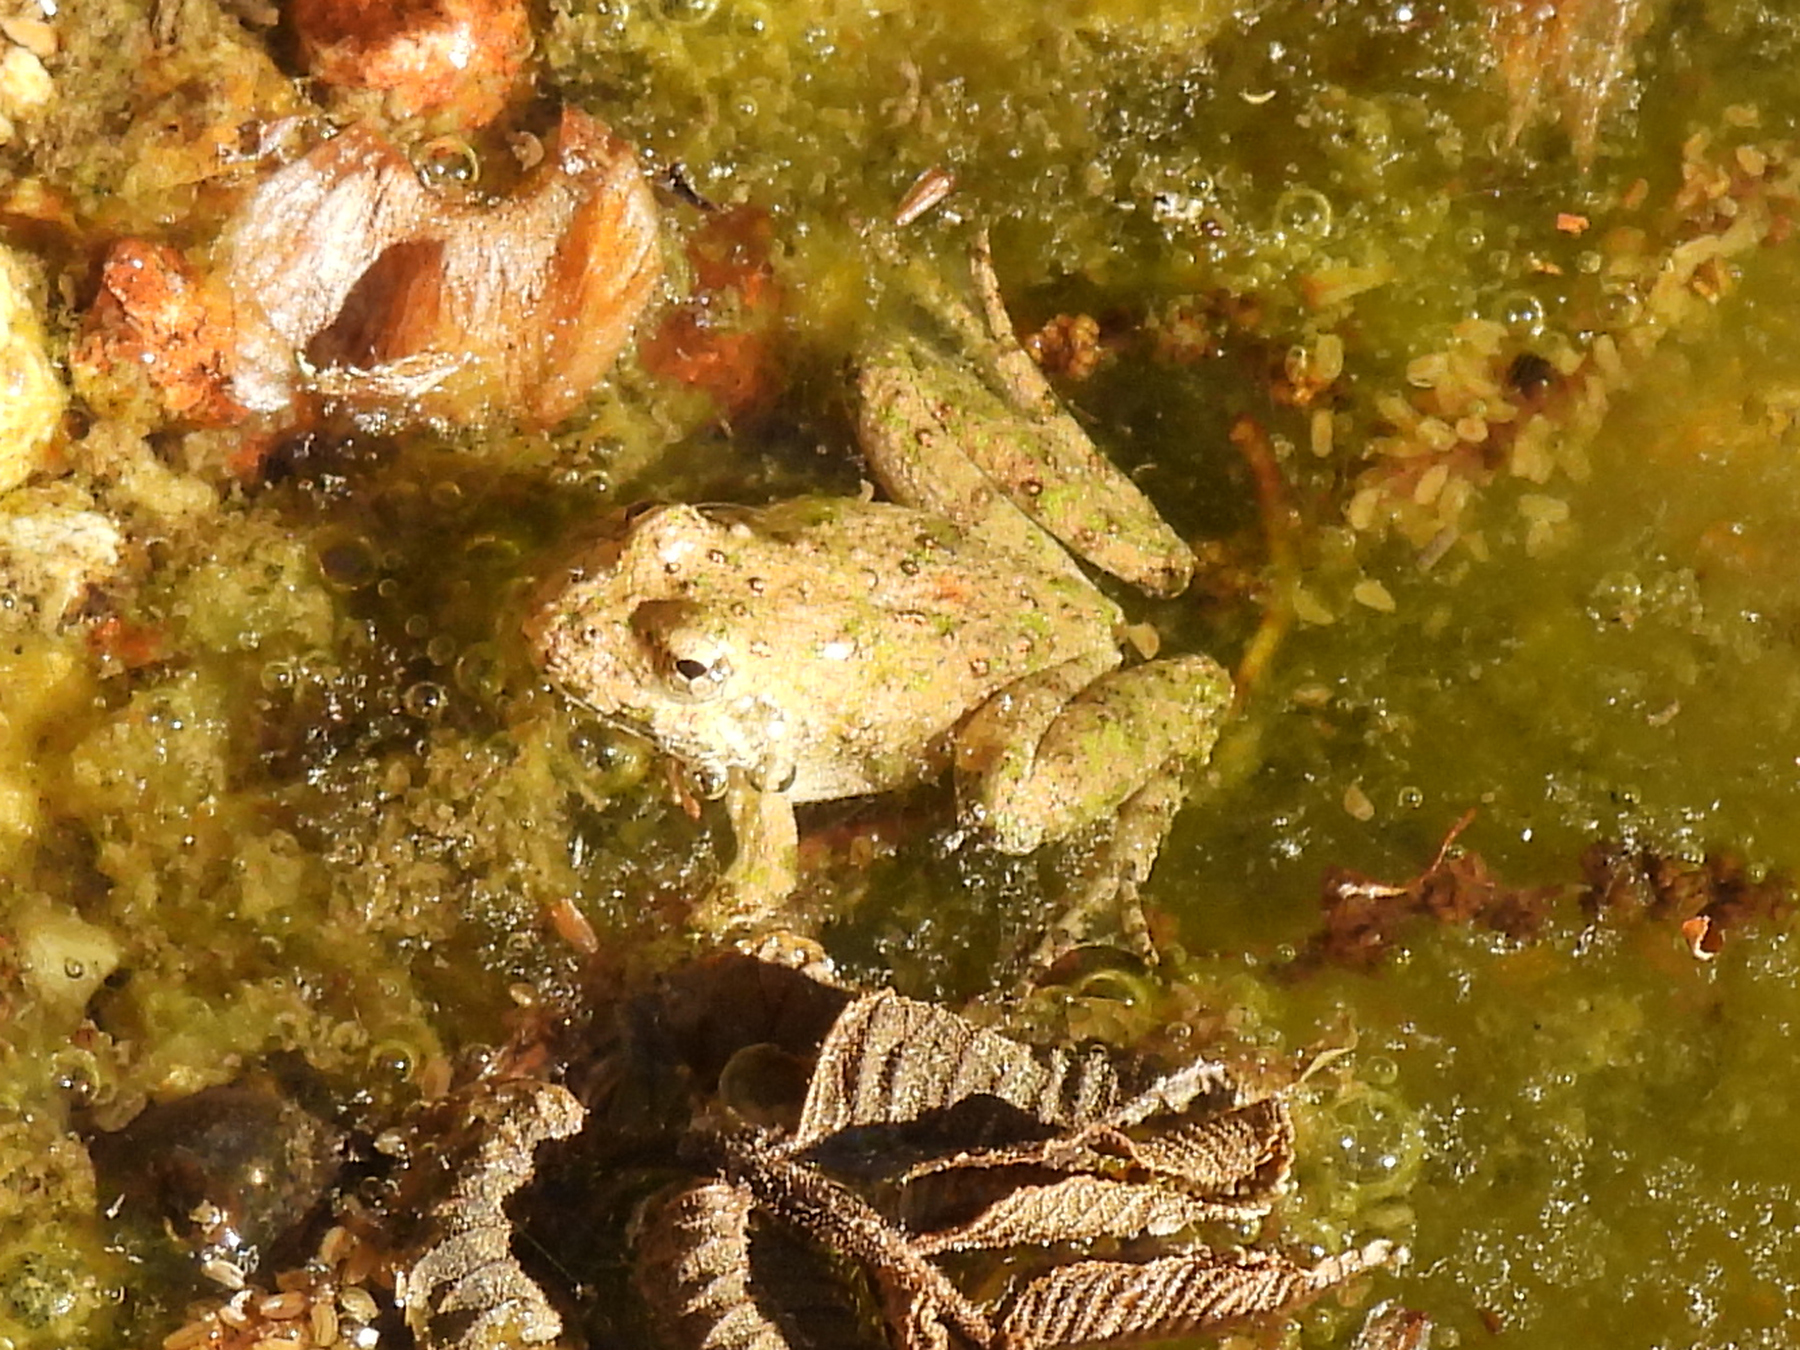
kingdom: Animalia
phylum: Chordata
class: Amphibia
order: Anura
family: Hylidae
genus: Acris
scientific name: Acris blanchardi
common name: Blanchard's cricket frog
